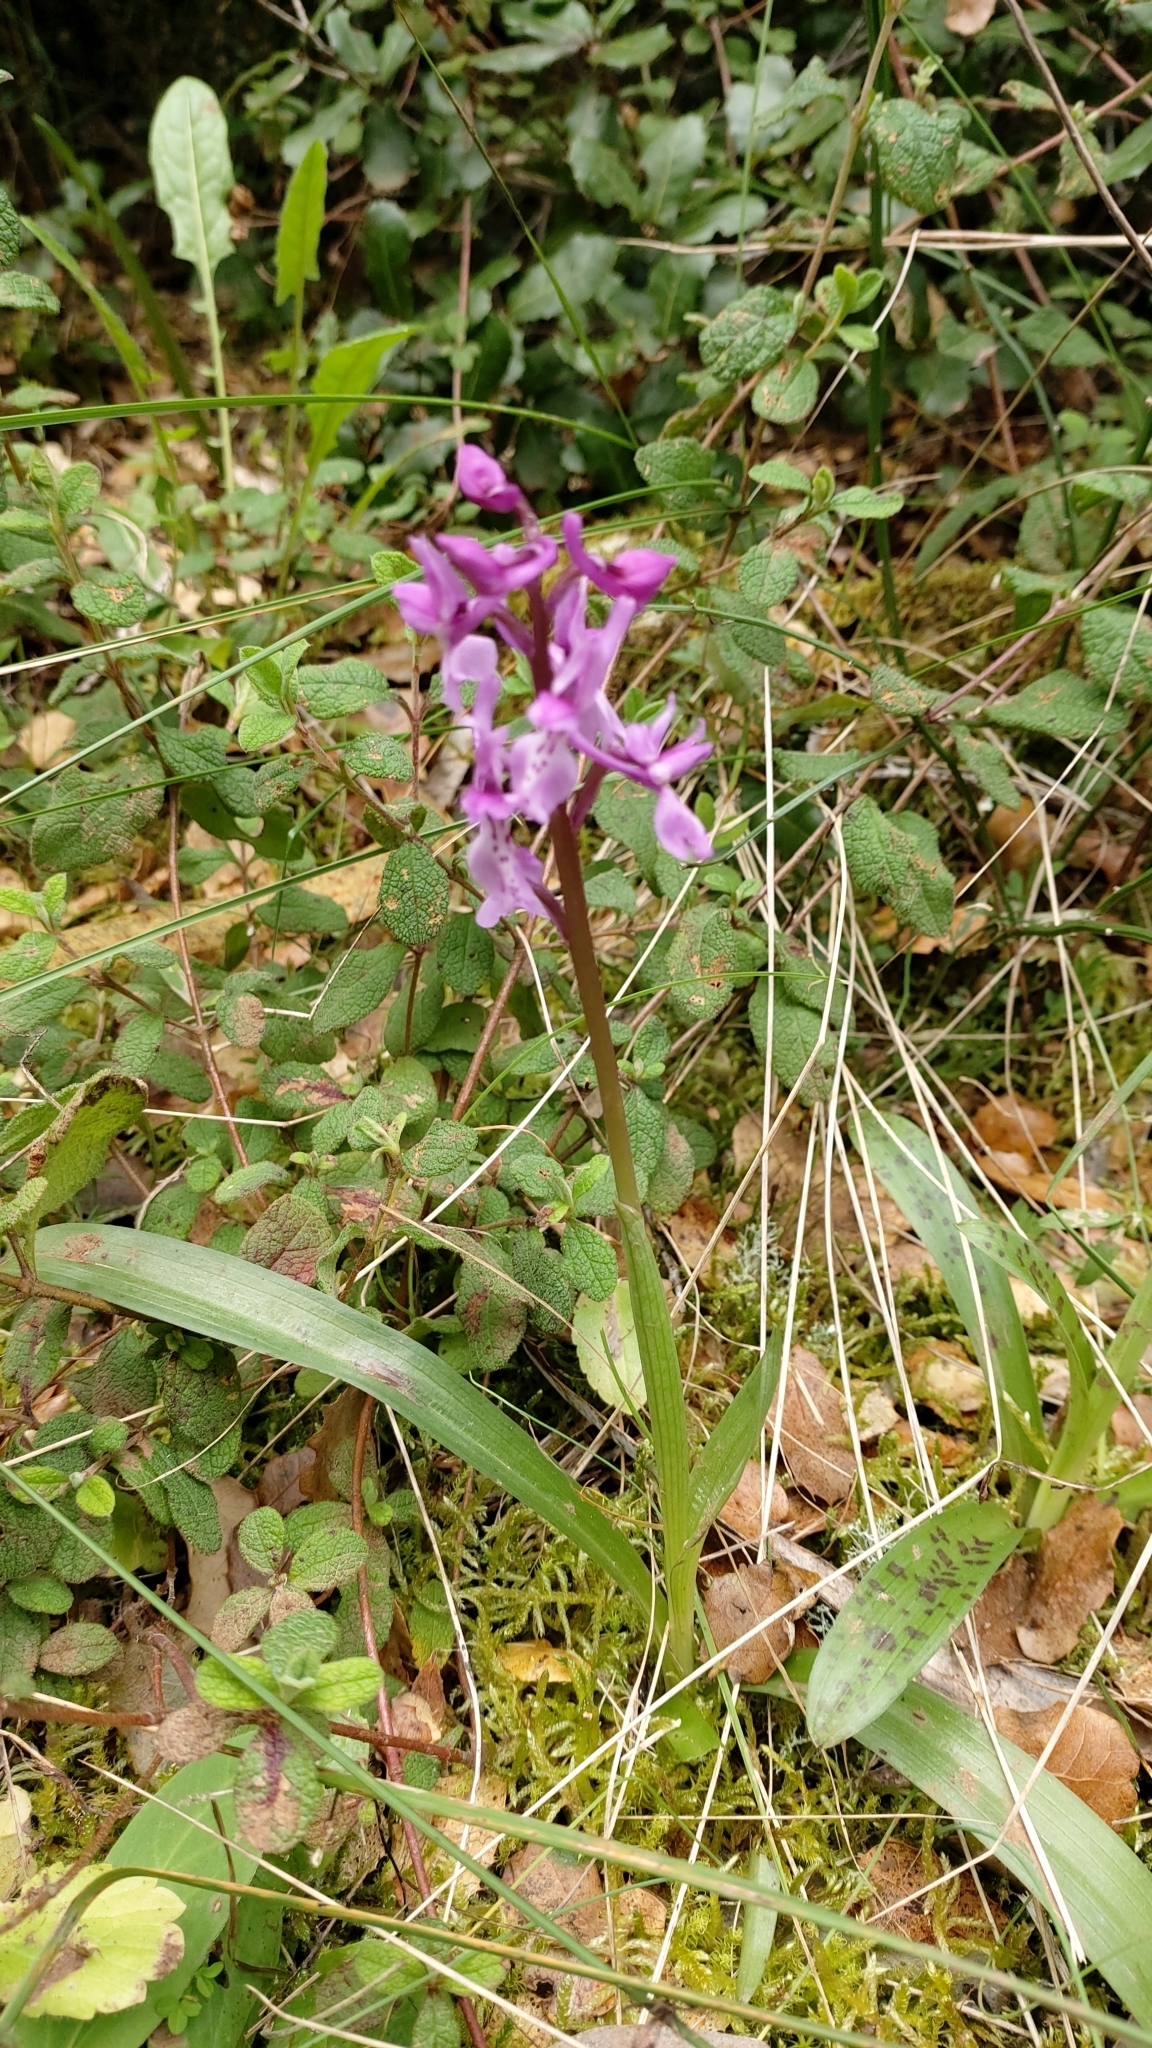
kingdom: Plantae
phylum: Tracheophyta
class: Liliopsida
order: Asparagales
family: Orchidaceae
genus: Orchis
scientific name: Orchis olbiensis
